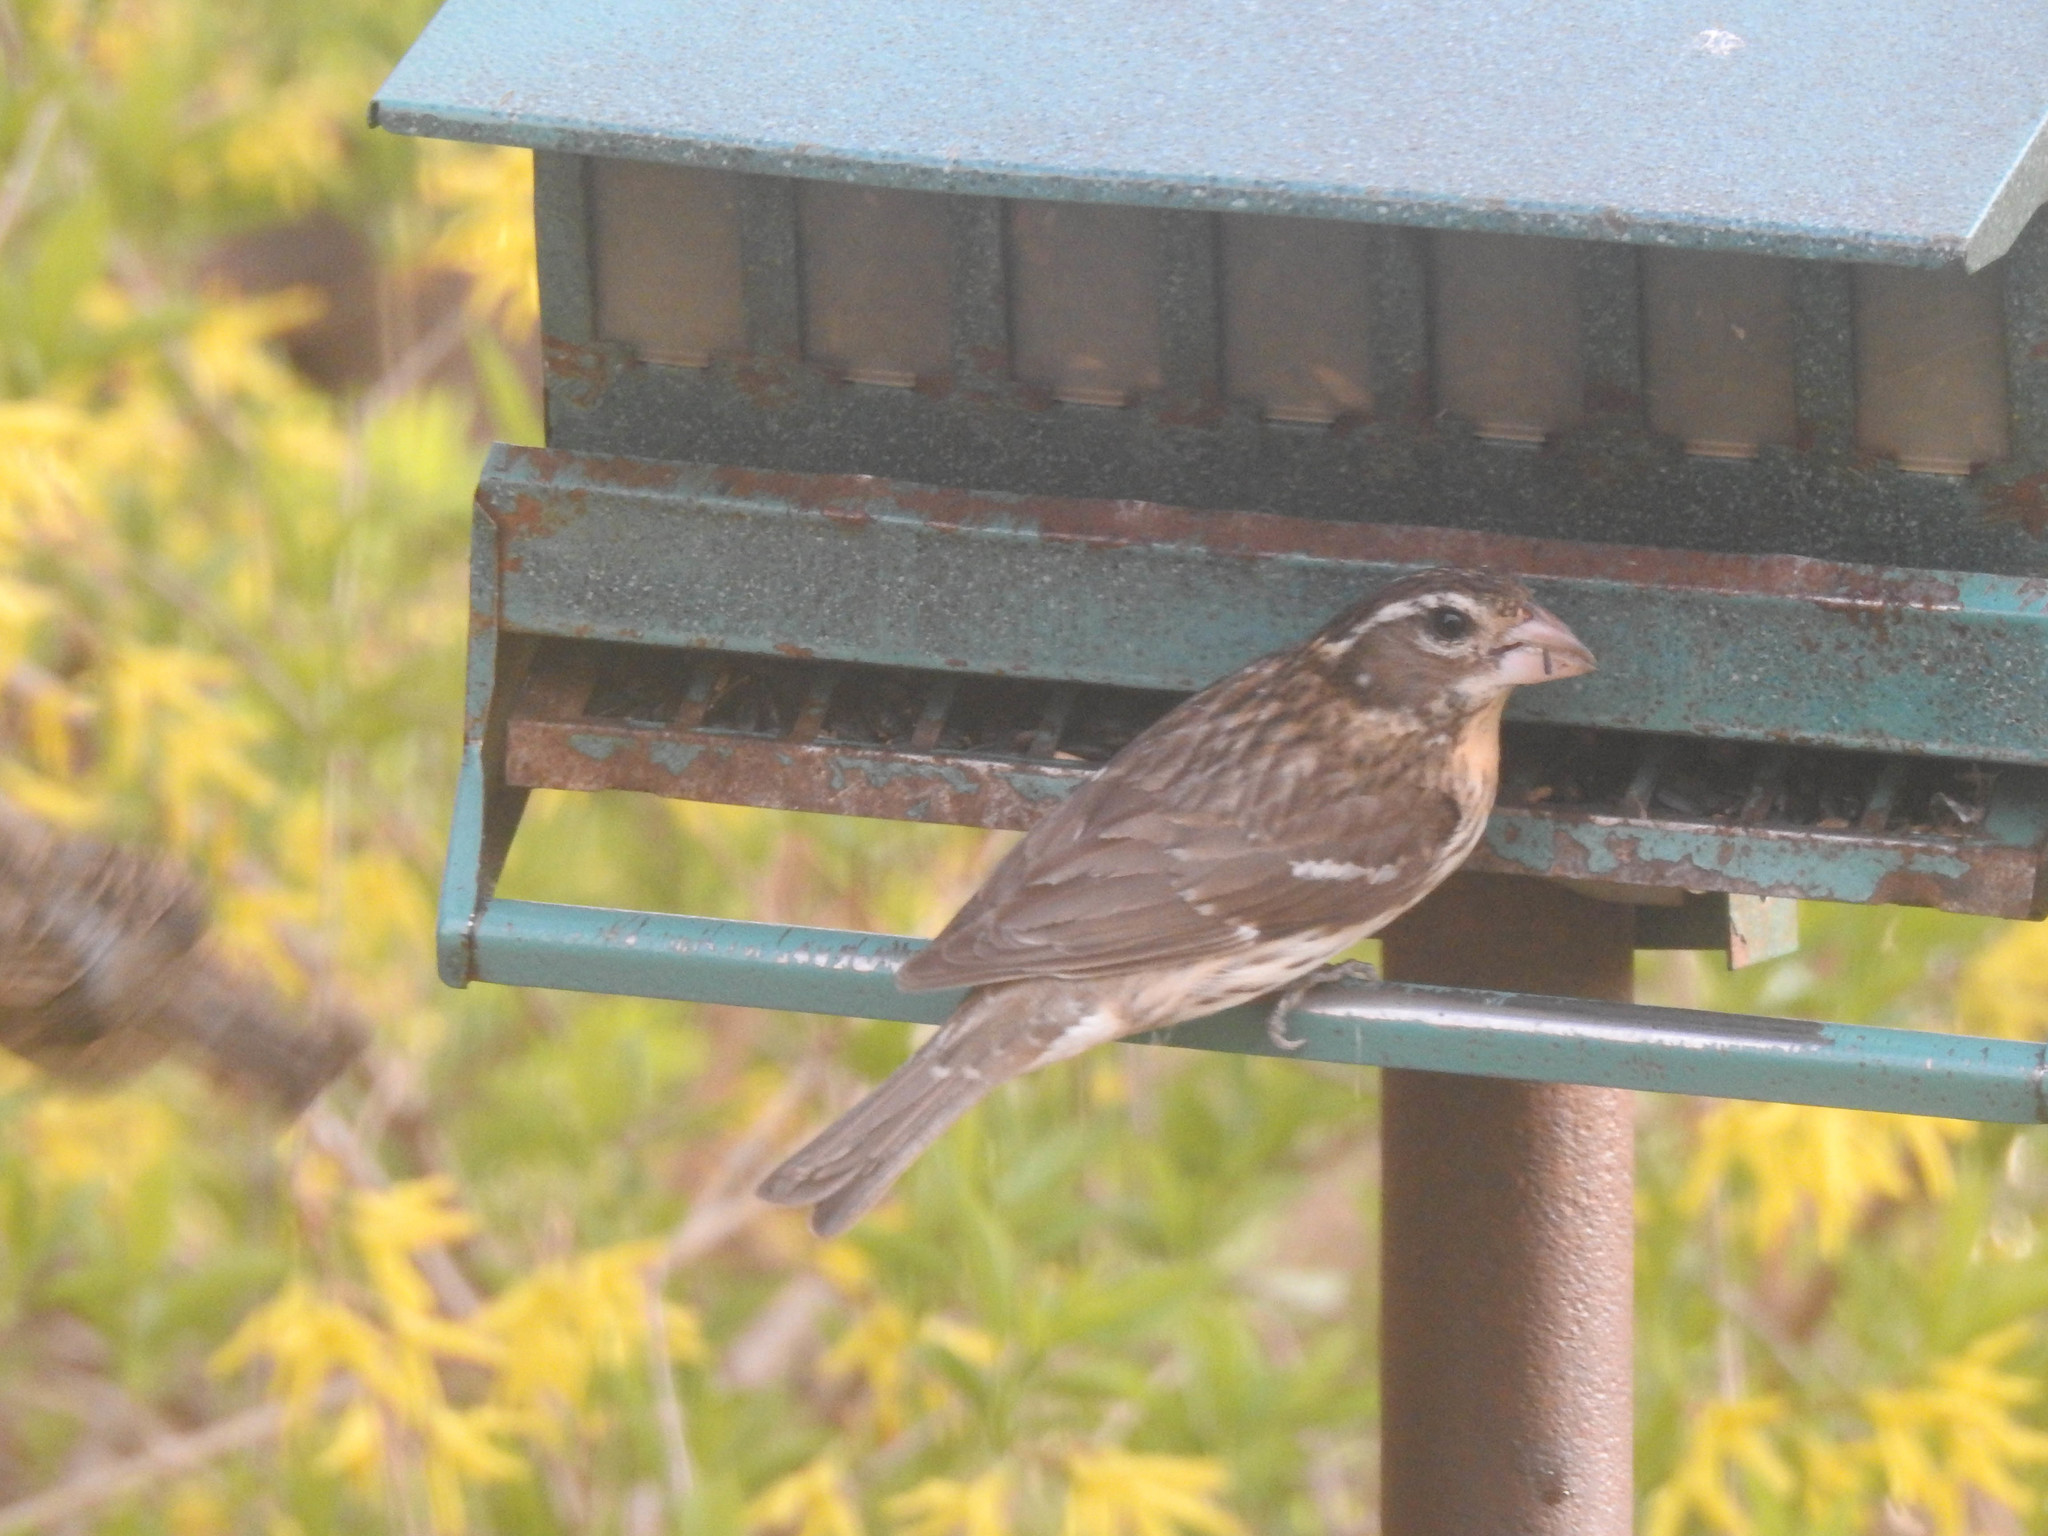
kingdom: Animalia
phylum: Chordata
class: Aves
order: Passeriformes
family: Cardinalidae
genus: Pheucticus
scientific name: Pheucticus ludovicianus
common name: Rose-breasted grosbeak
